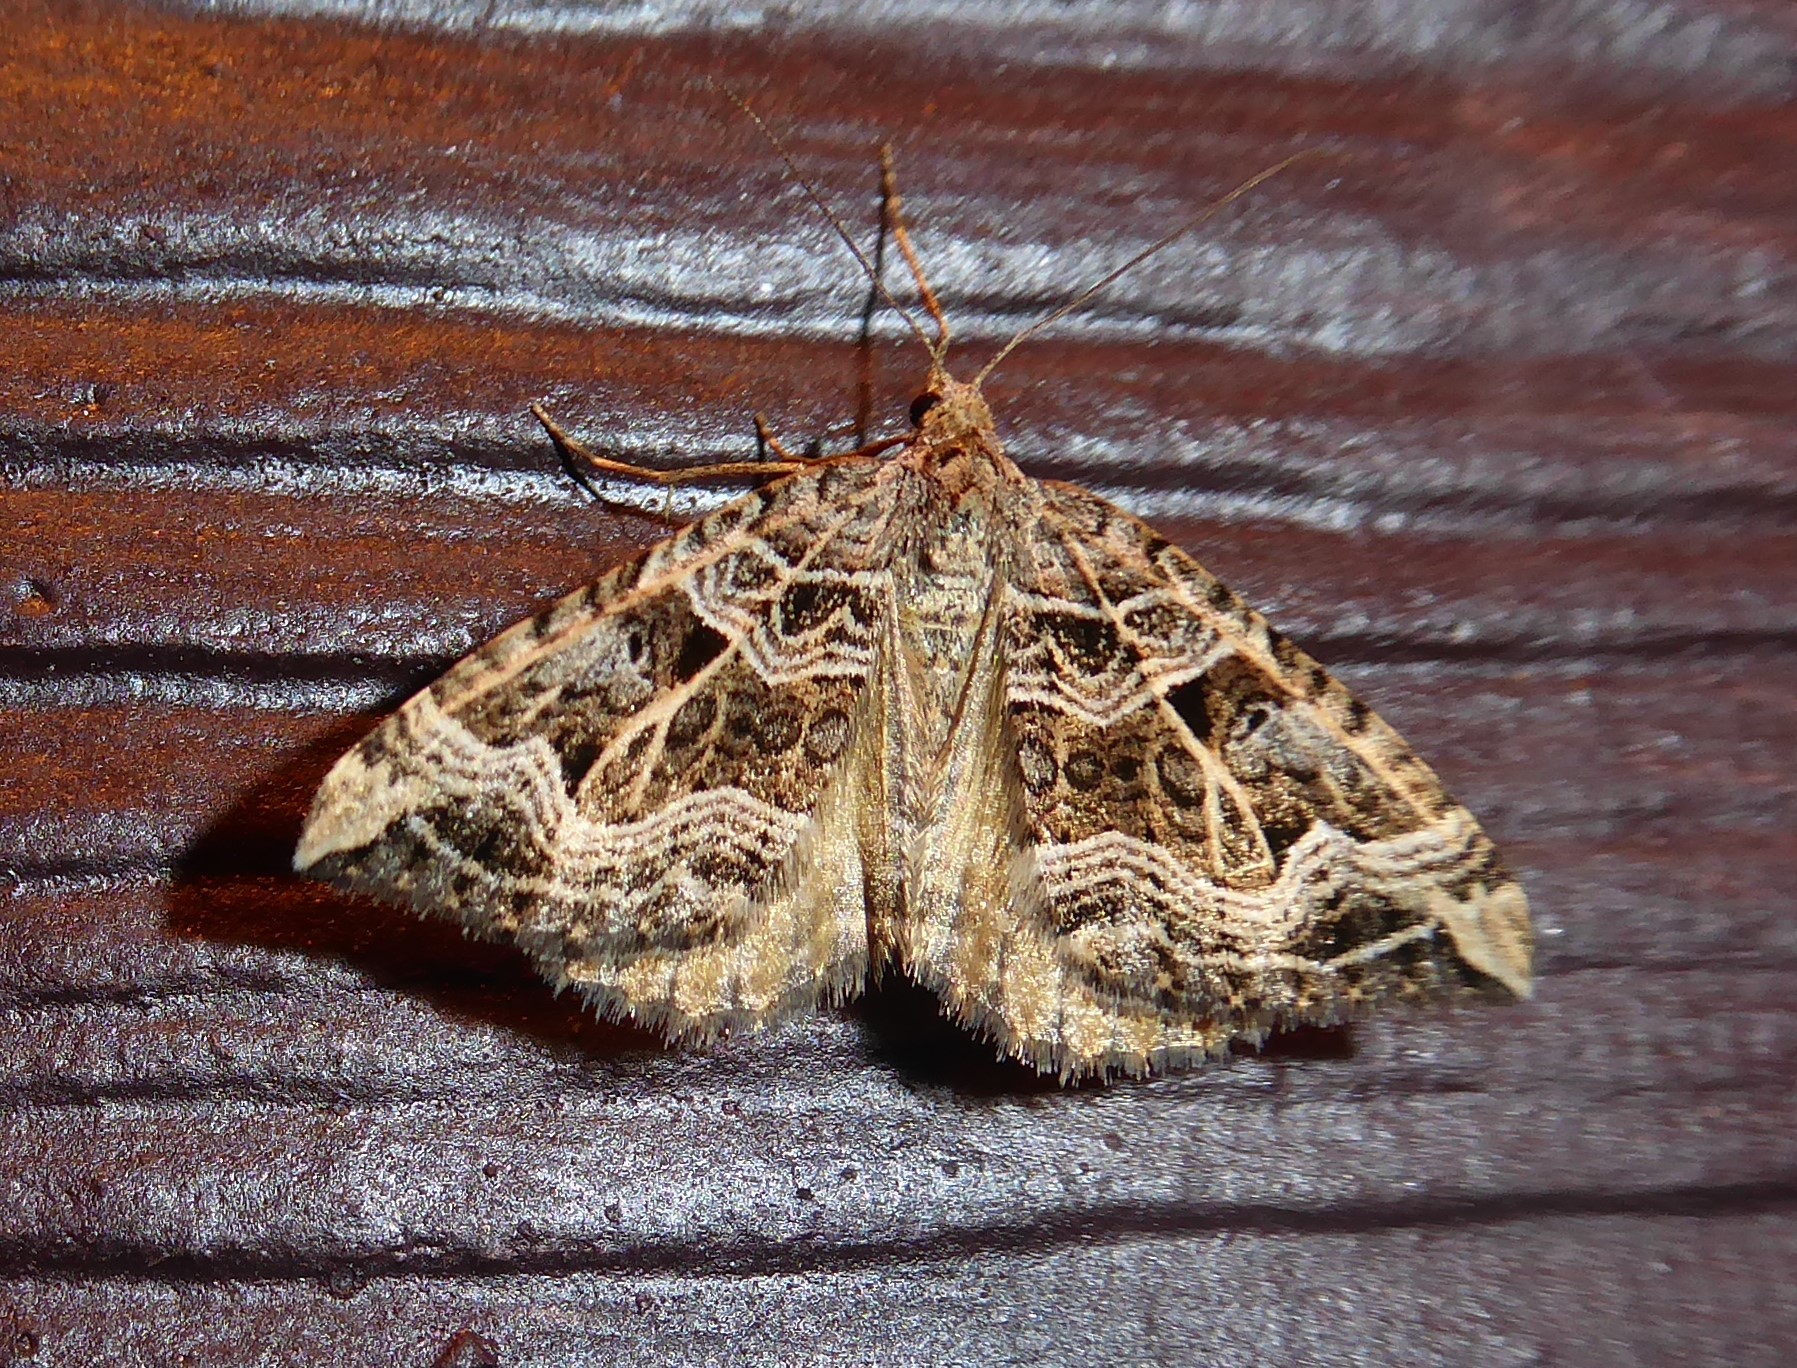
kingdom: Animalia
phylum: Arthropoda
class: Insecta
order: Lepidoptera
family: Geometridae
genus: Xanthorhoe
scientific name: Xanthorhoe semifissata
